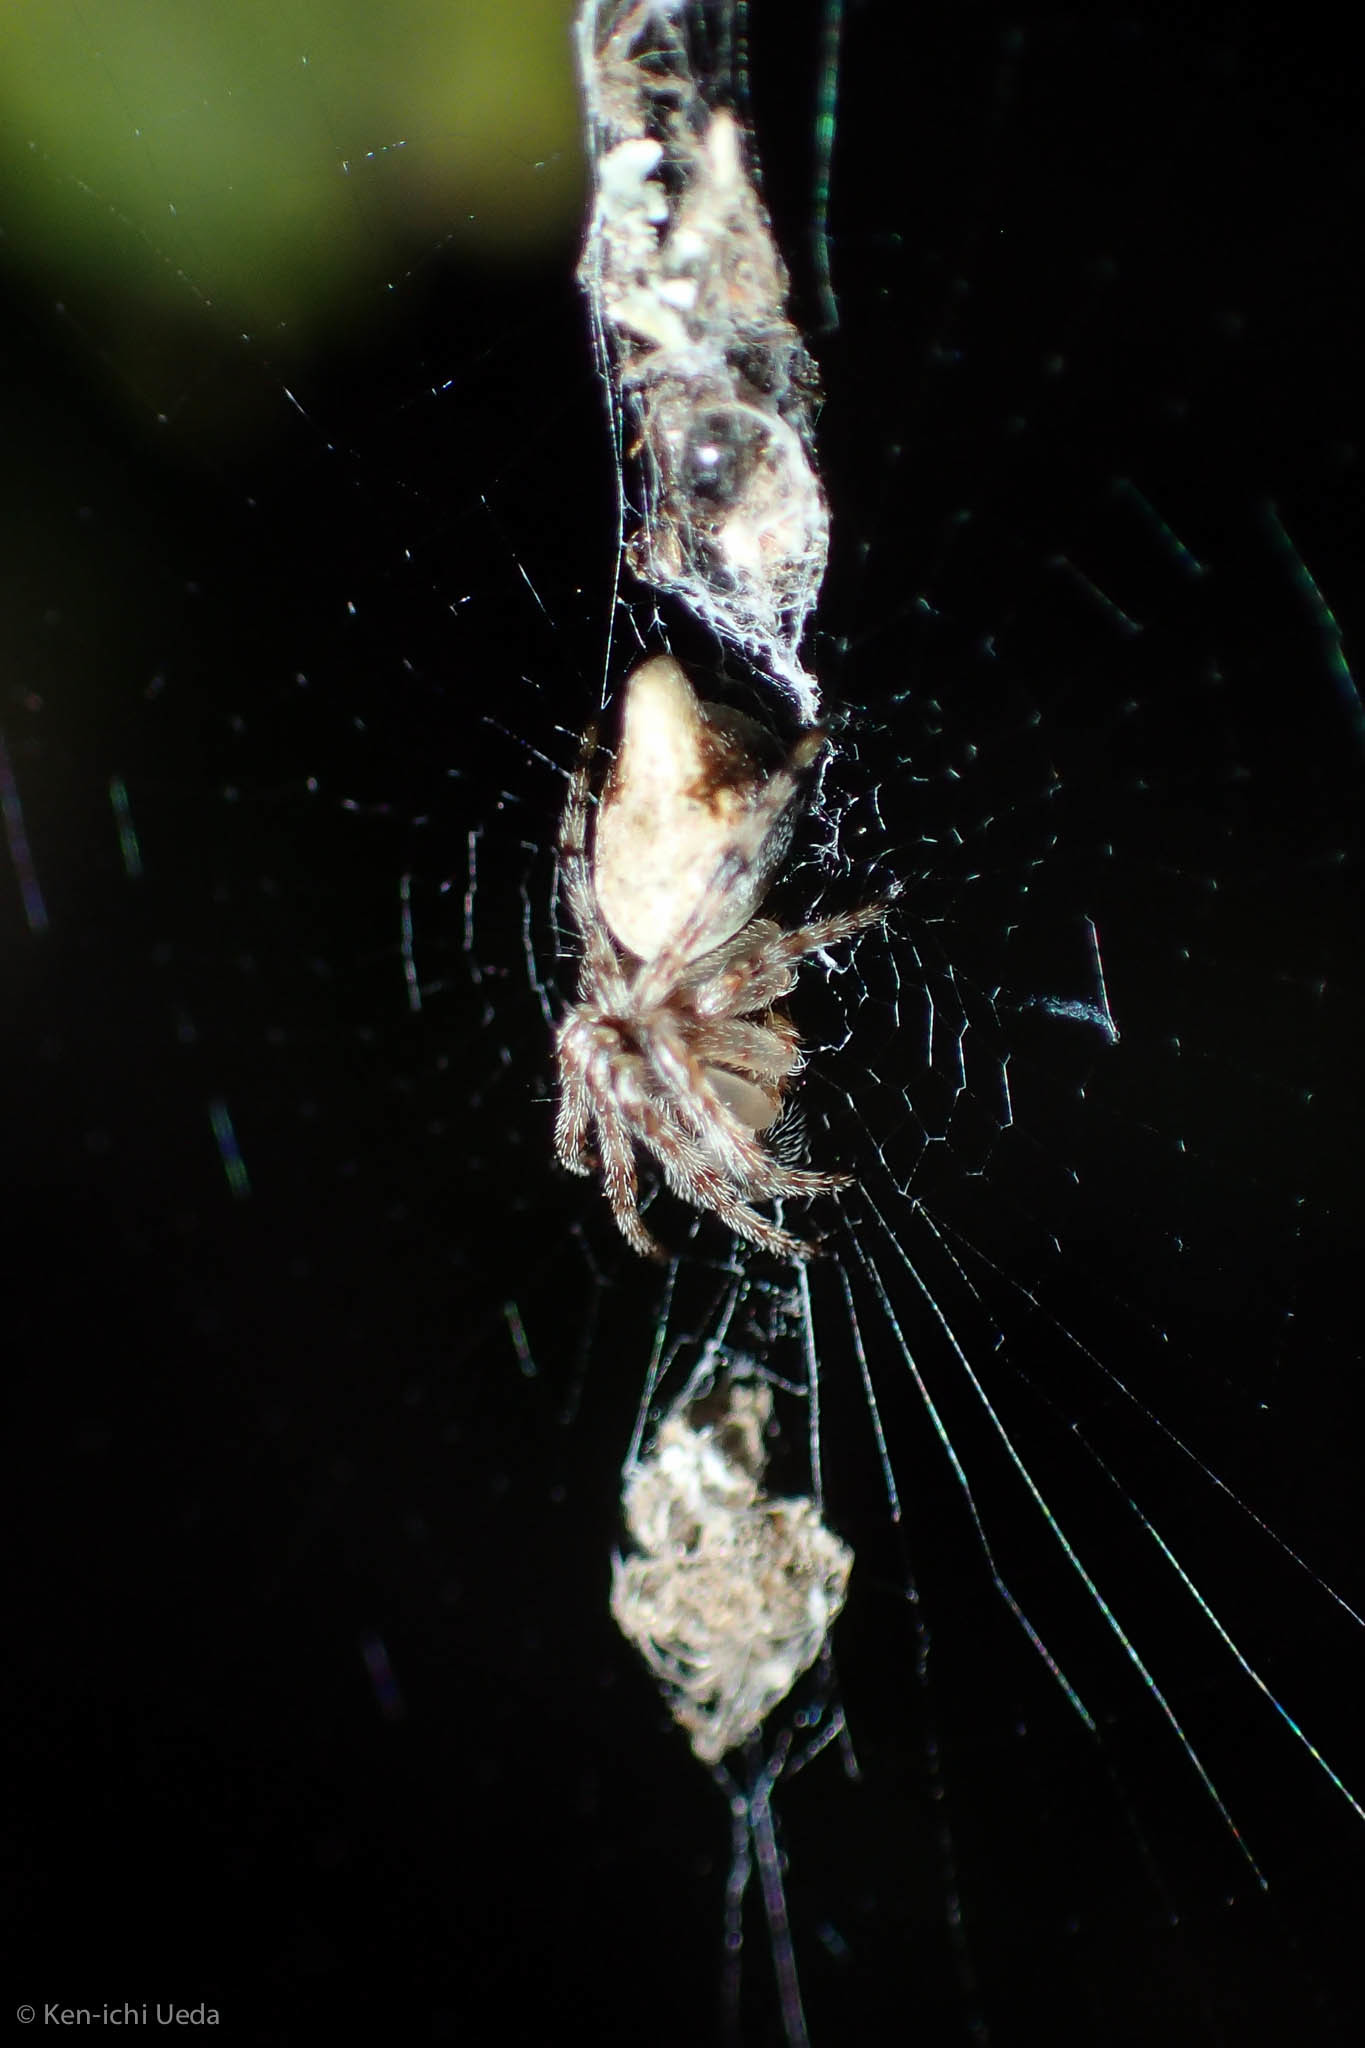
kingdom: Animalia
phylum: Arthropoda
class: Arachnida
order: Araneae
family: Araneidae
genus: Cyclosa
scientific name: Cyclosa conica
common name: Conical trashline orbweaver
